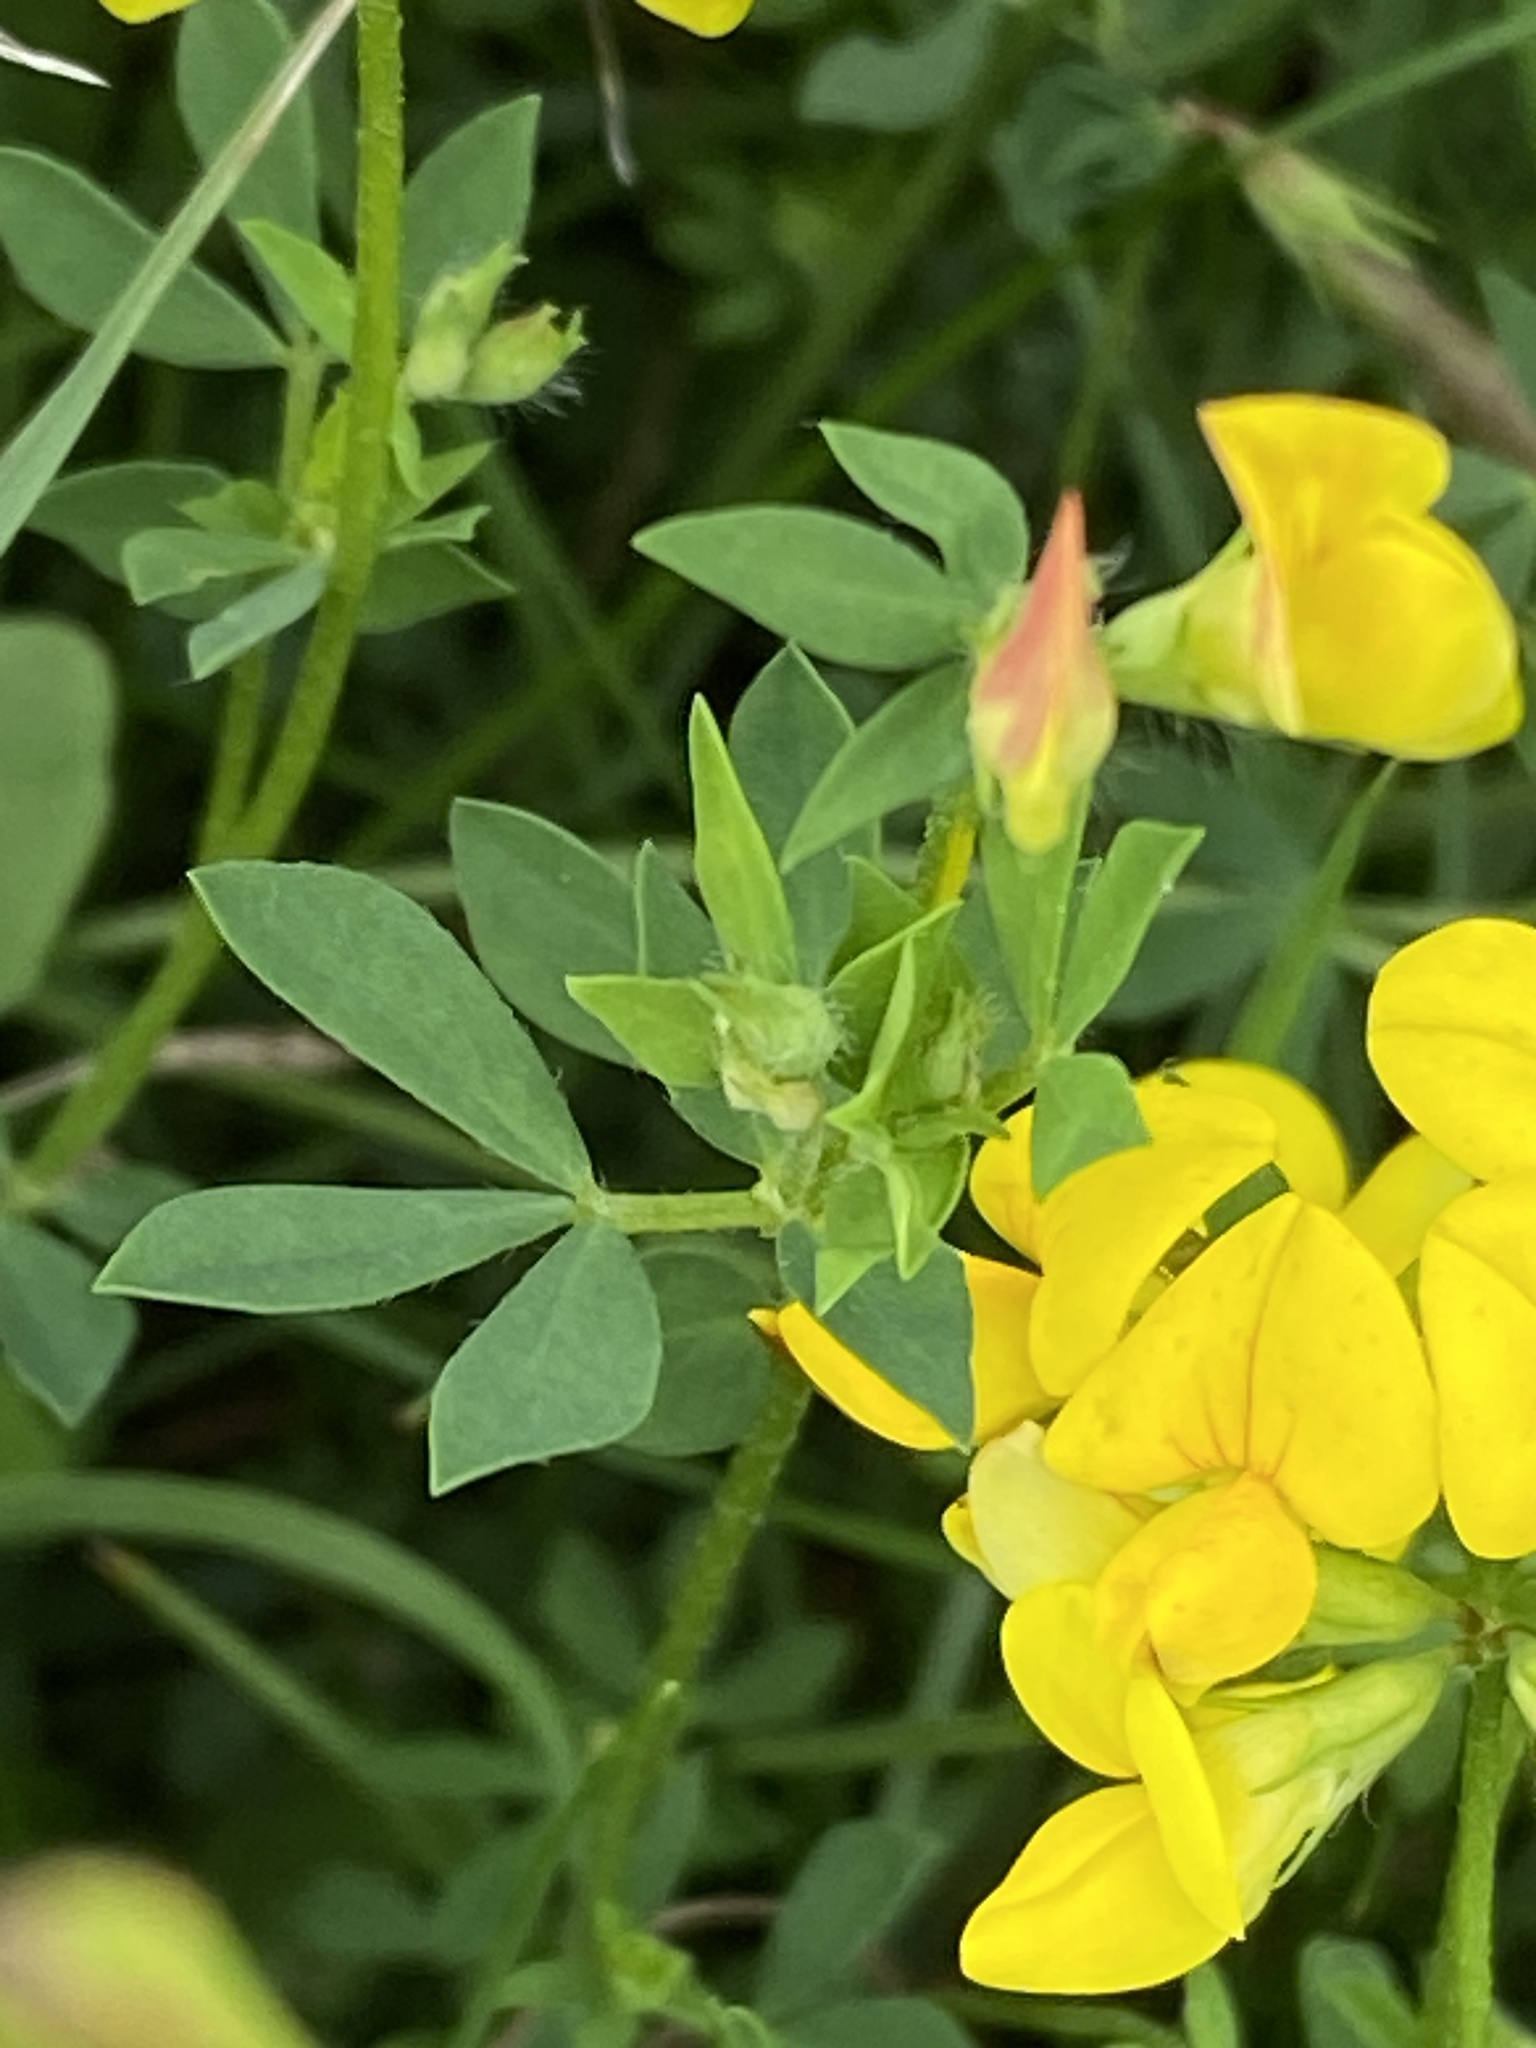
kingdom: Plantae
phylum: Tracheophyta
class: Magnoliopsida
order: Fabales
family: Fabaceae
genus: Lotus
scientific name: Lotus corniculatus
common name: Common bird's-foot-trefoil
